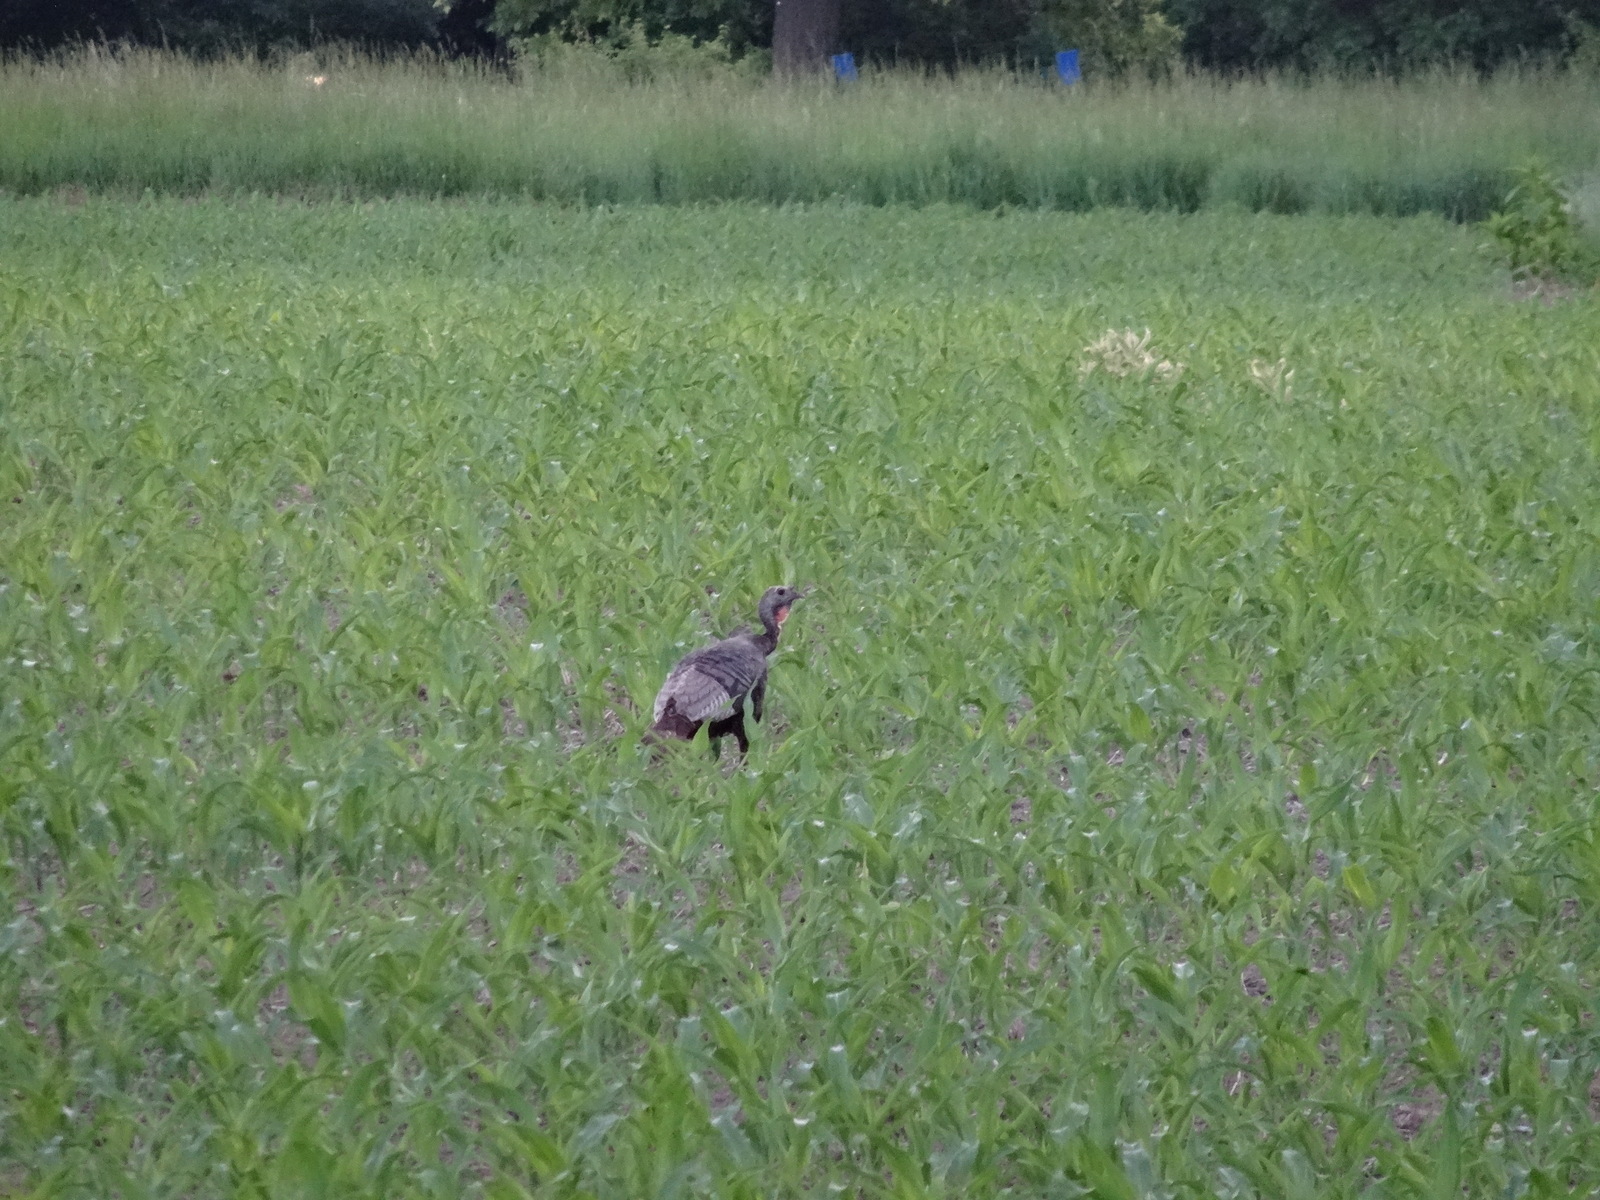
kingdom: Animalia
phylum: Chordata
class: Aves
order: Galliformes
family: Phasianidae
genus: Meleagris
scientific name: Meleagris gallopavo
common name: Wild turkey
